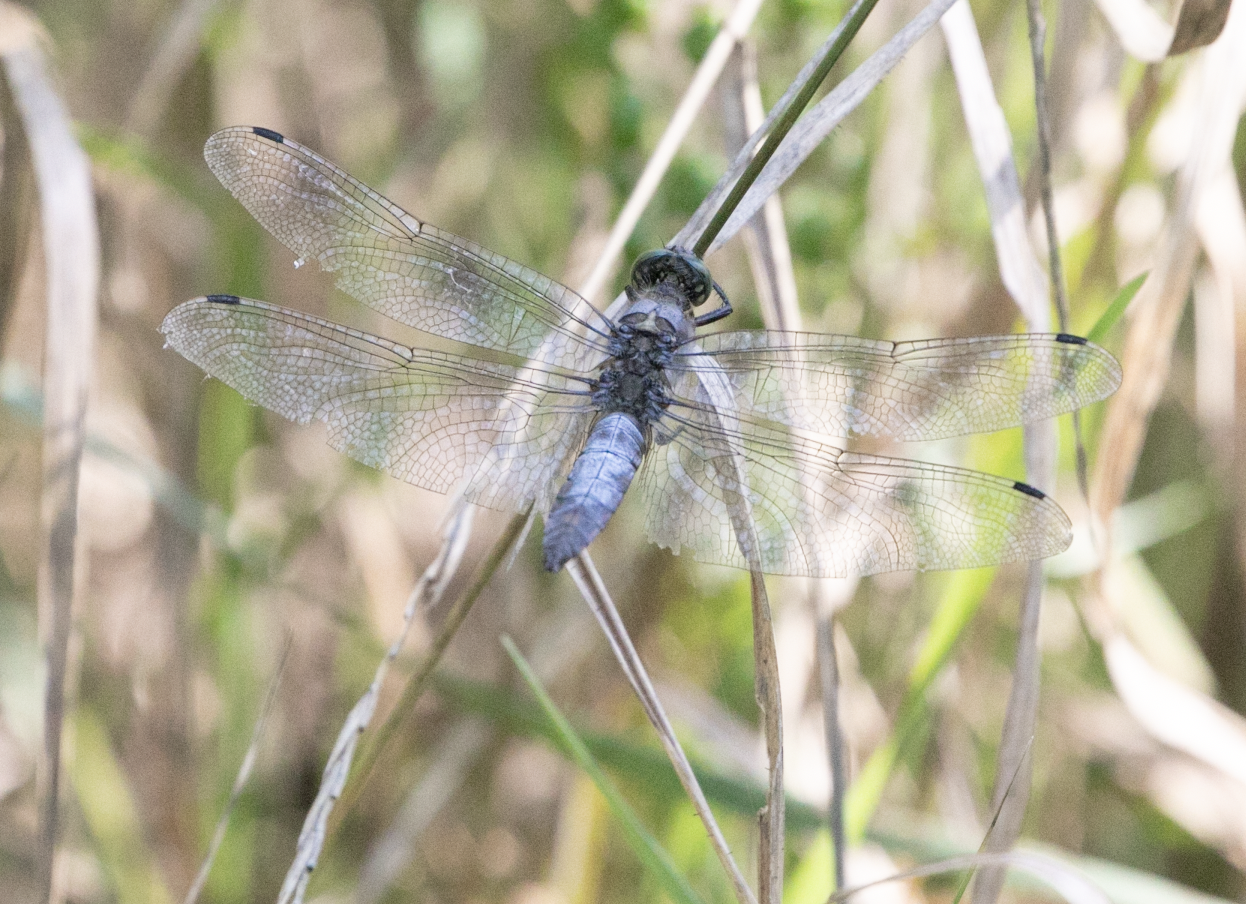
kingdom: Animalia
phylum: Arthropoda
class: Insecta
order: Odonata
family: Libellulidae
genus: Orthetrum
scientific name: Orthetrum cancellatum
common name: Black-tailed skimmer
